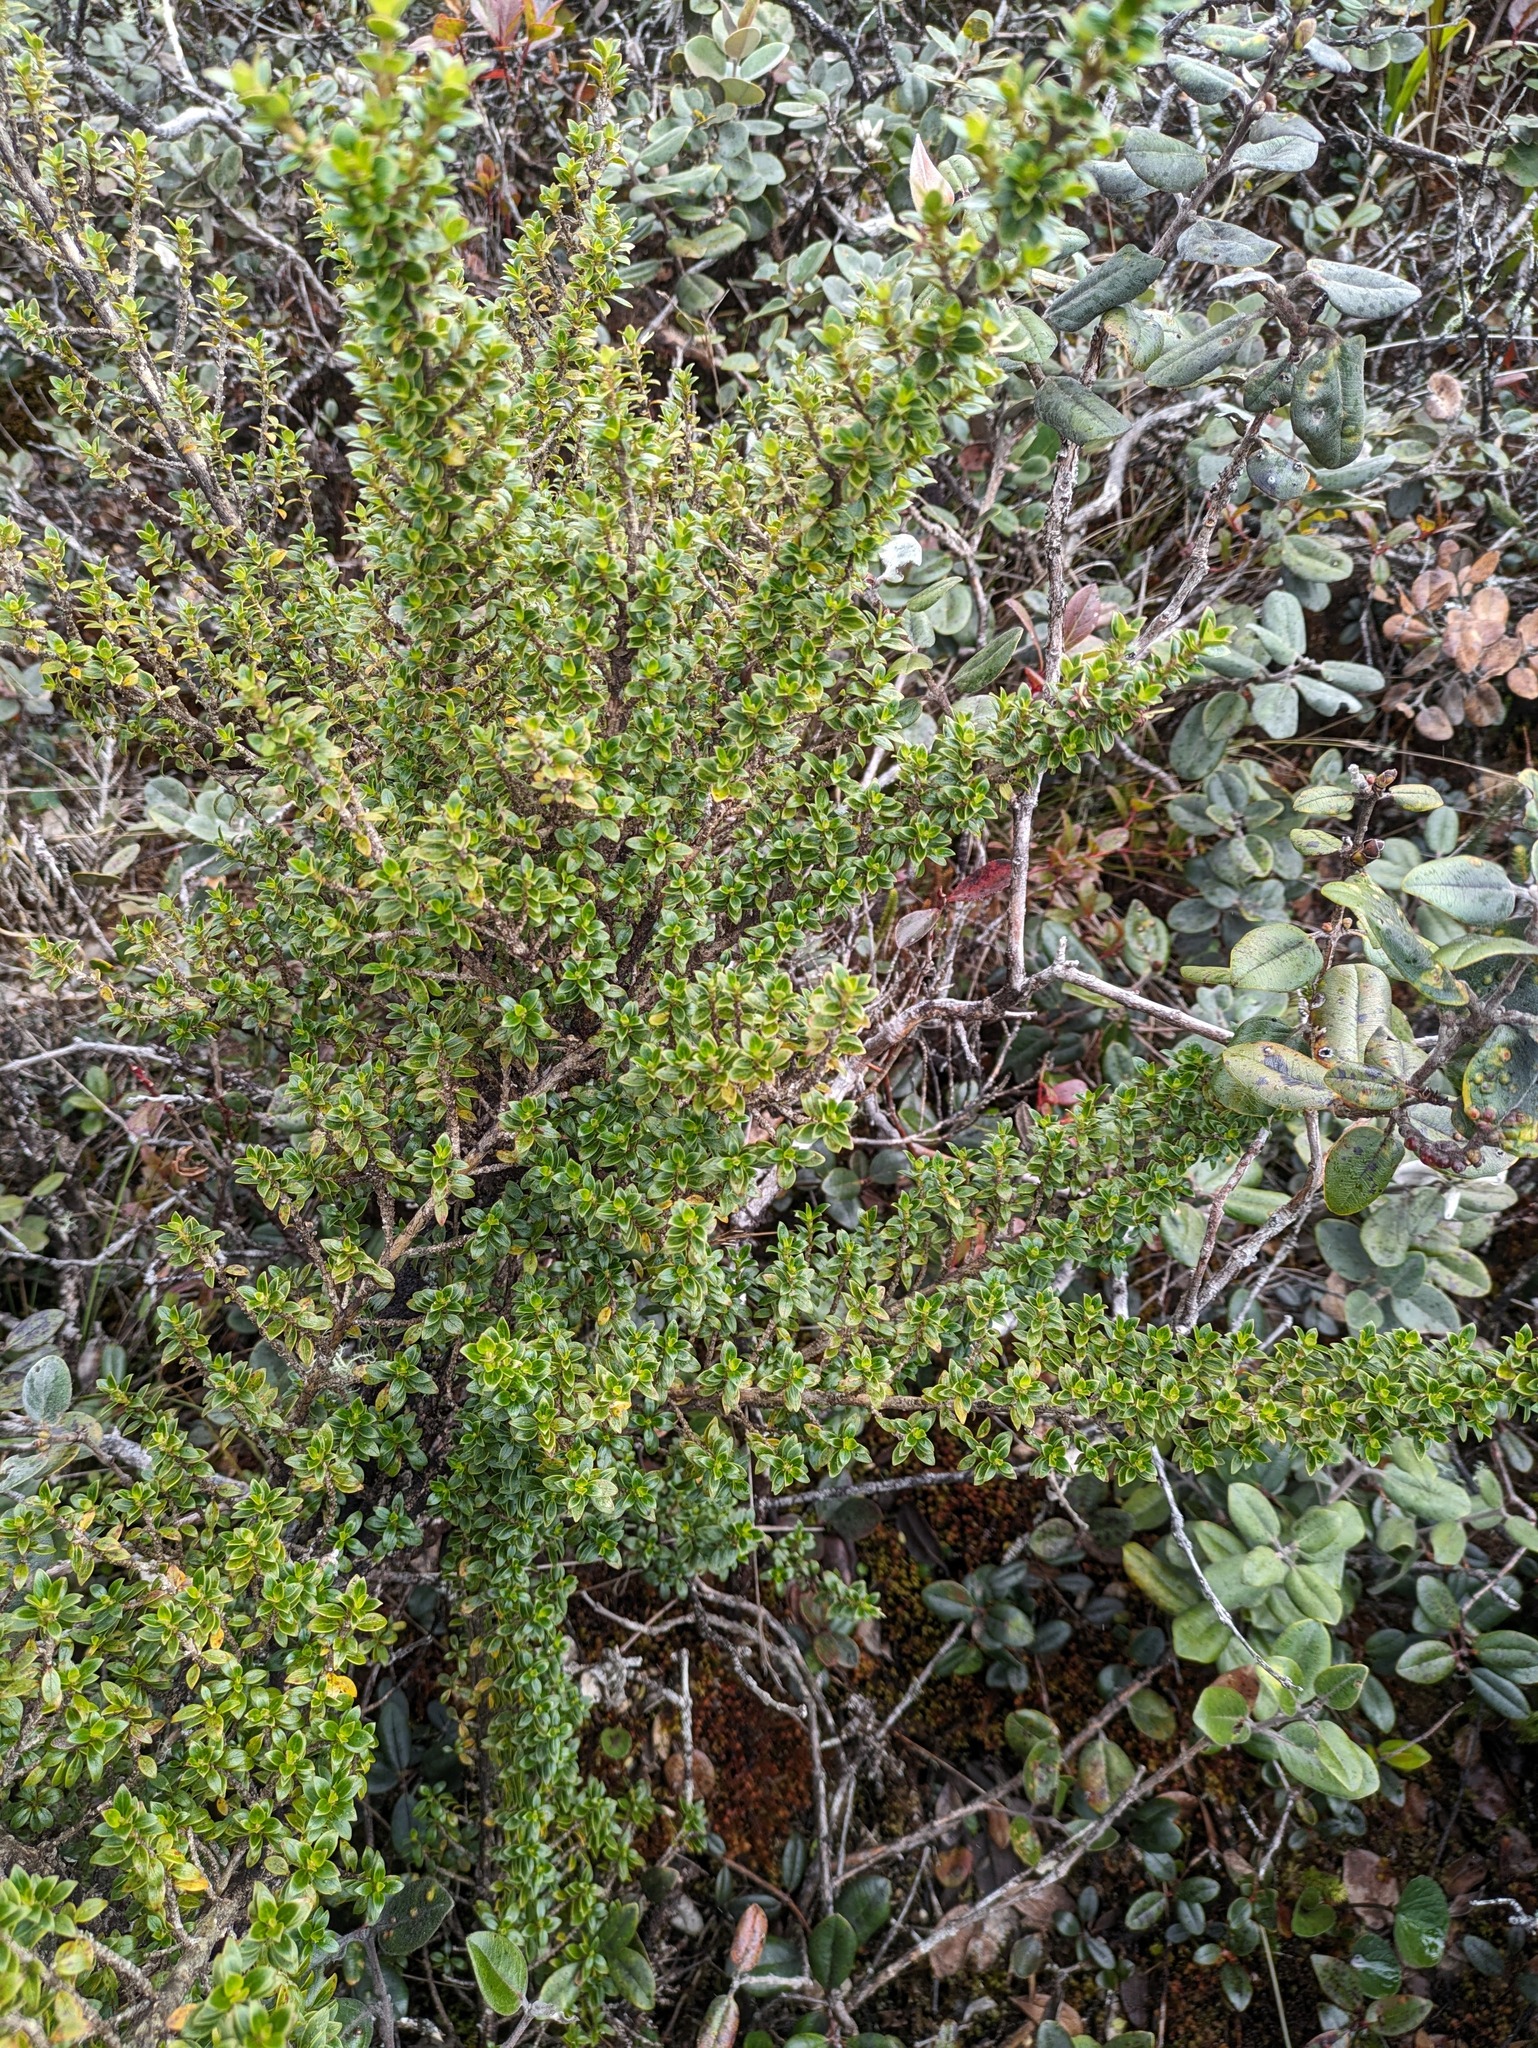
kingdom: Plantae
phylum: Tracheophyta
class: Magnoliopsida
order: Gentianales
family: Rubiaceae
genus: Coprosma
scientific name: Coprosma elliptica
